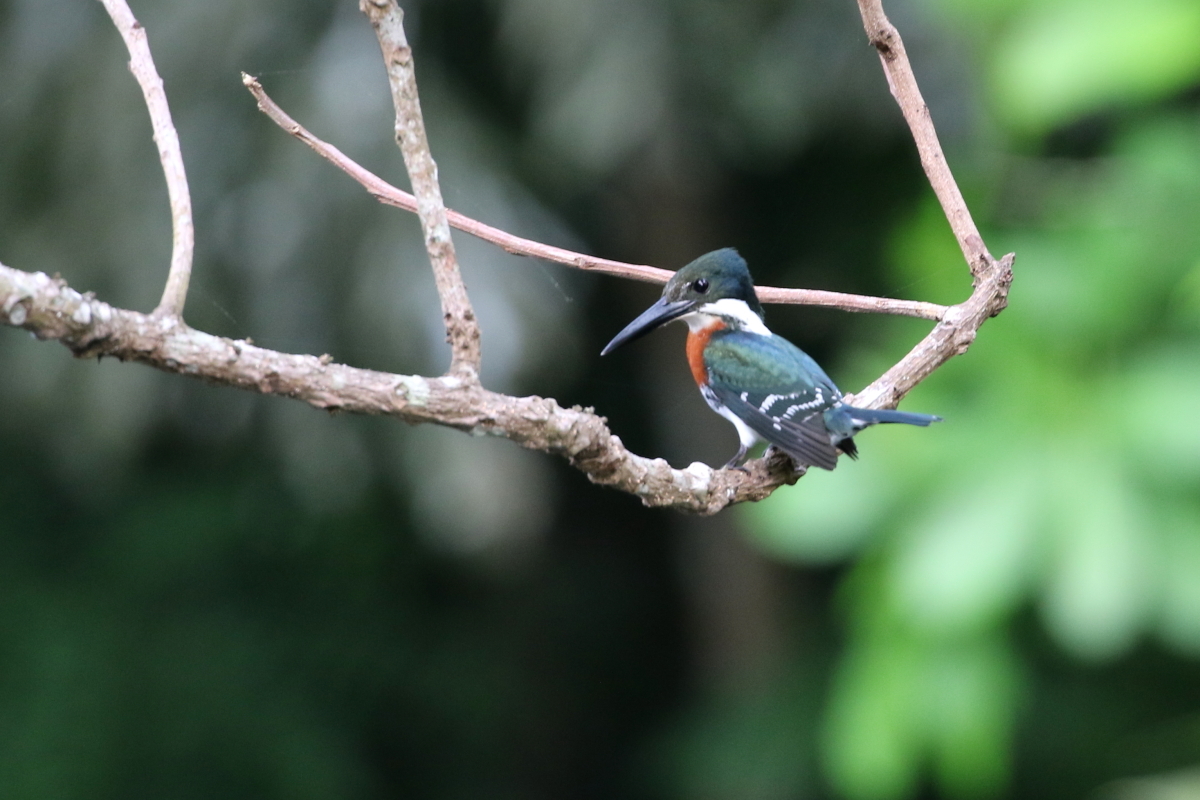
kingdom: Animalia
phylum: Chordata
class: Aves
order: Coraciiformes
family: Alcedinidae
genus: Chloroceryle
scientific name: Chloroceryle americana
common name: Green kingfisher
